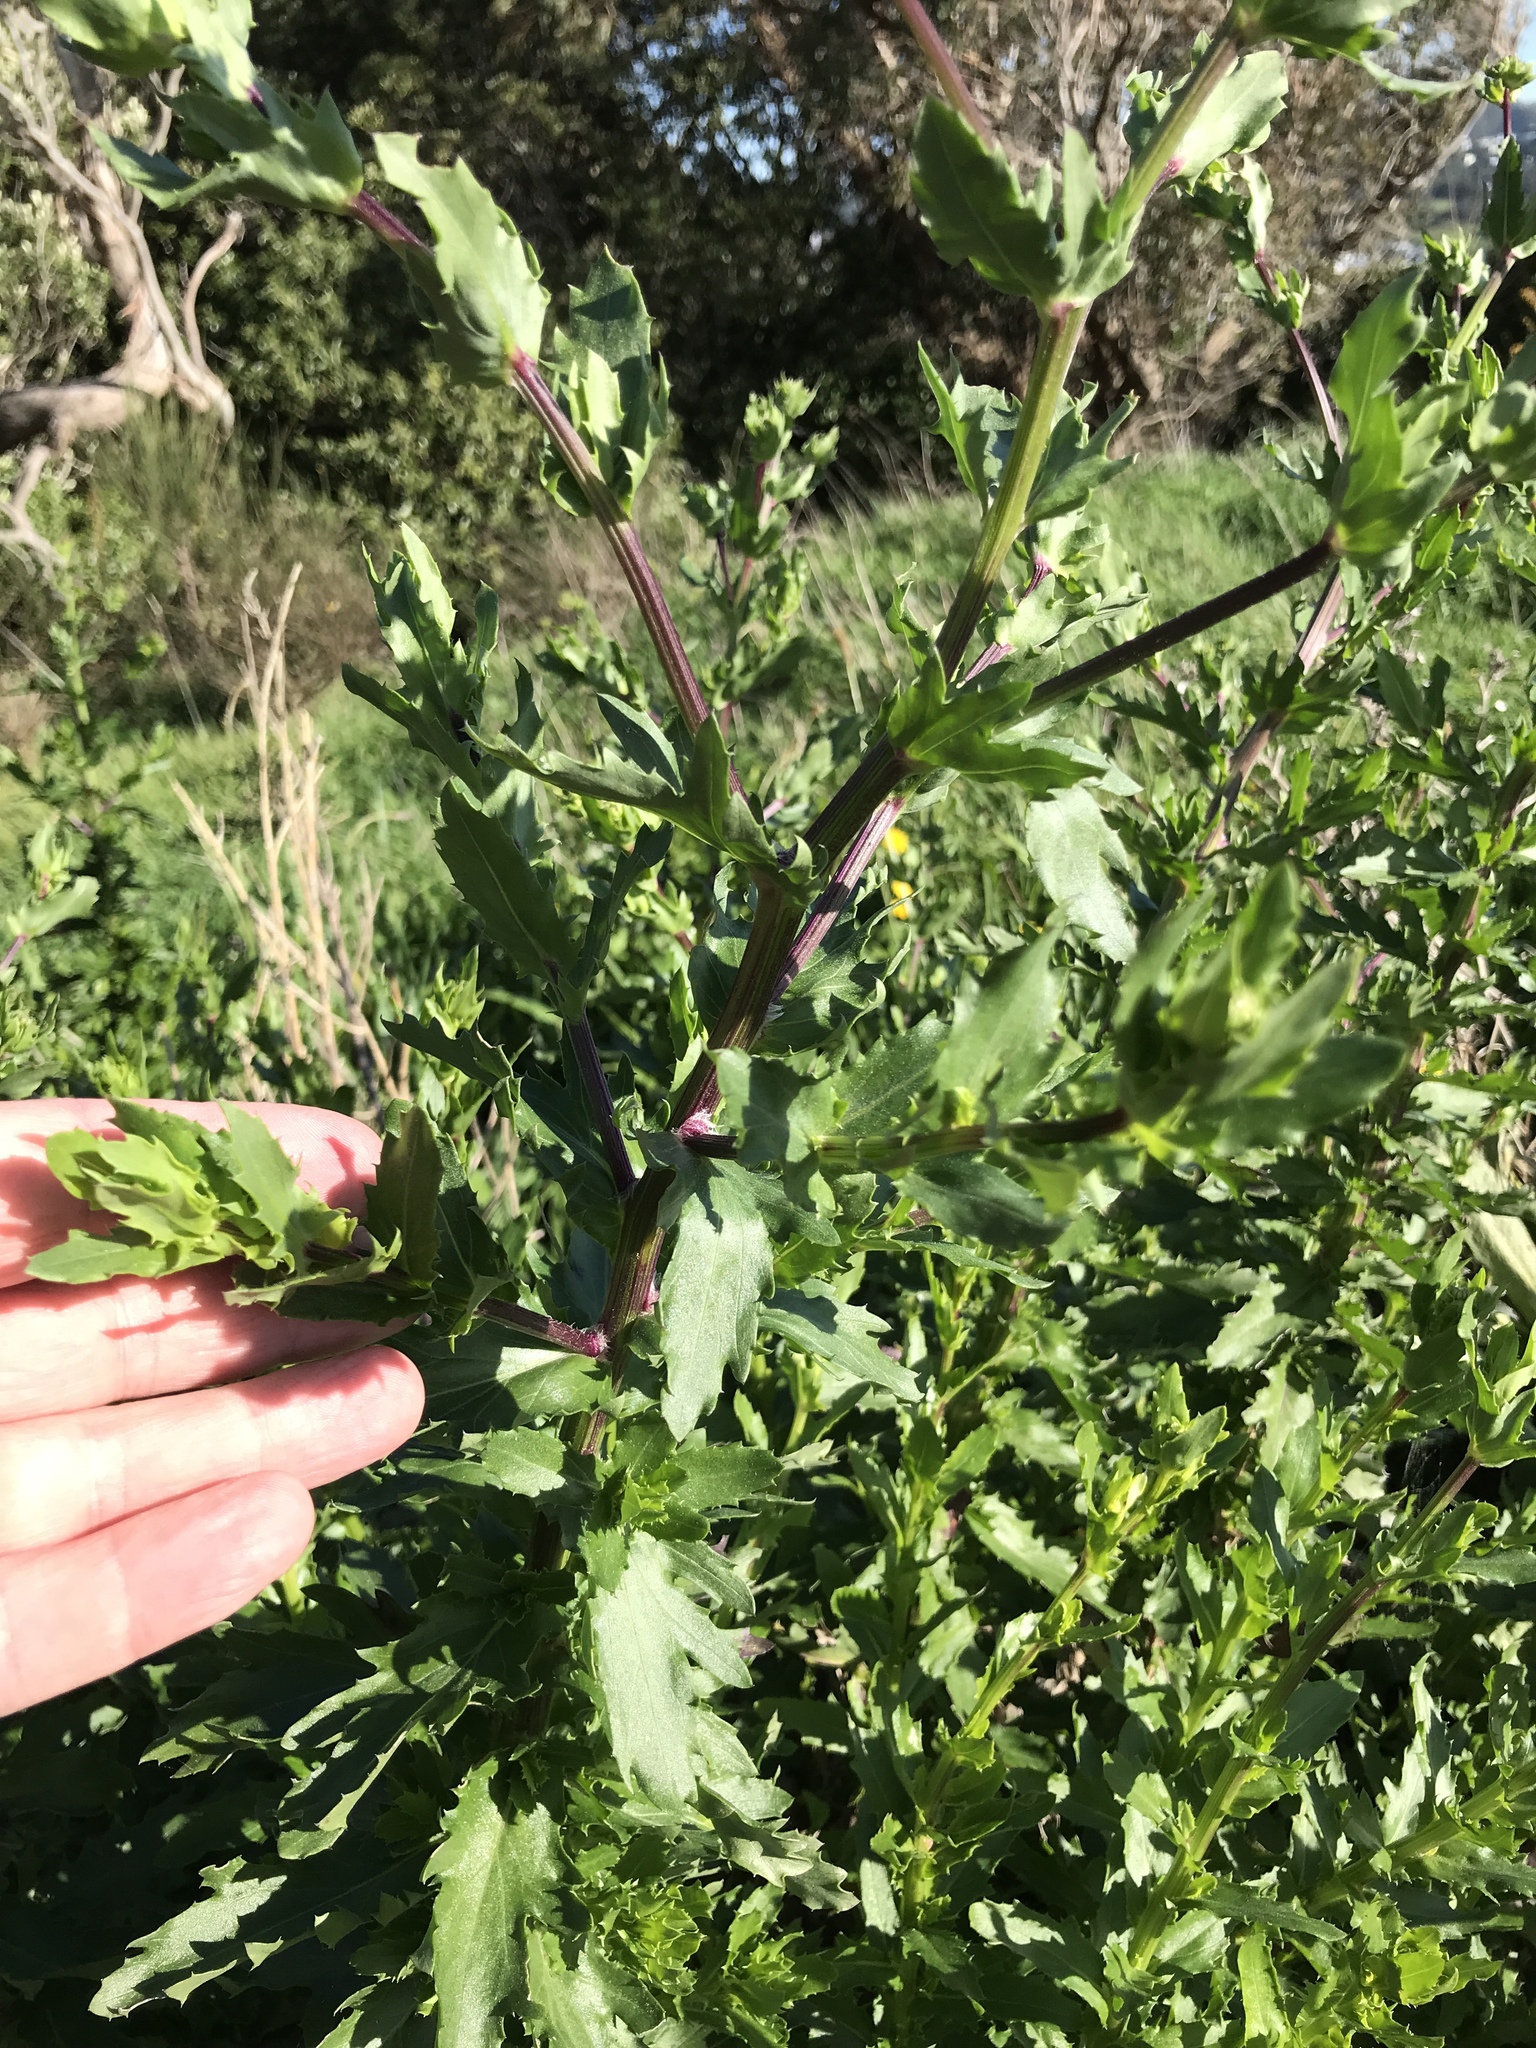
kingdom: Plantae
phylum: Tracheophyta
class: Magnoliopsida
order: Asterales
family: Asteraceae
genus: Senecio
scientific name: Senecio glastifolius
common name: Woad-leaved ragwort
